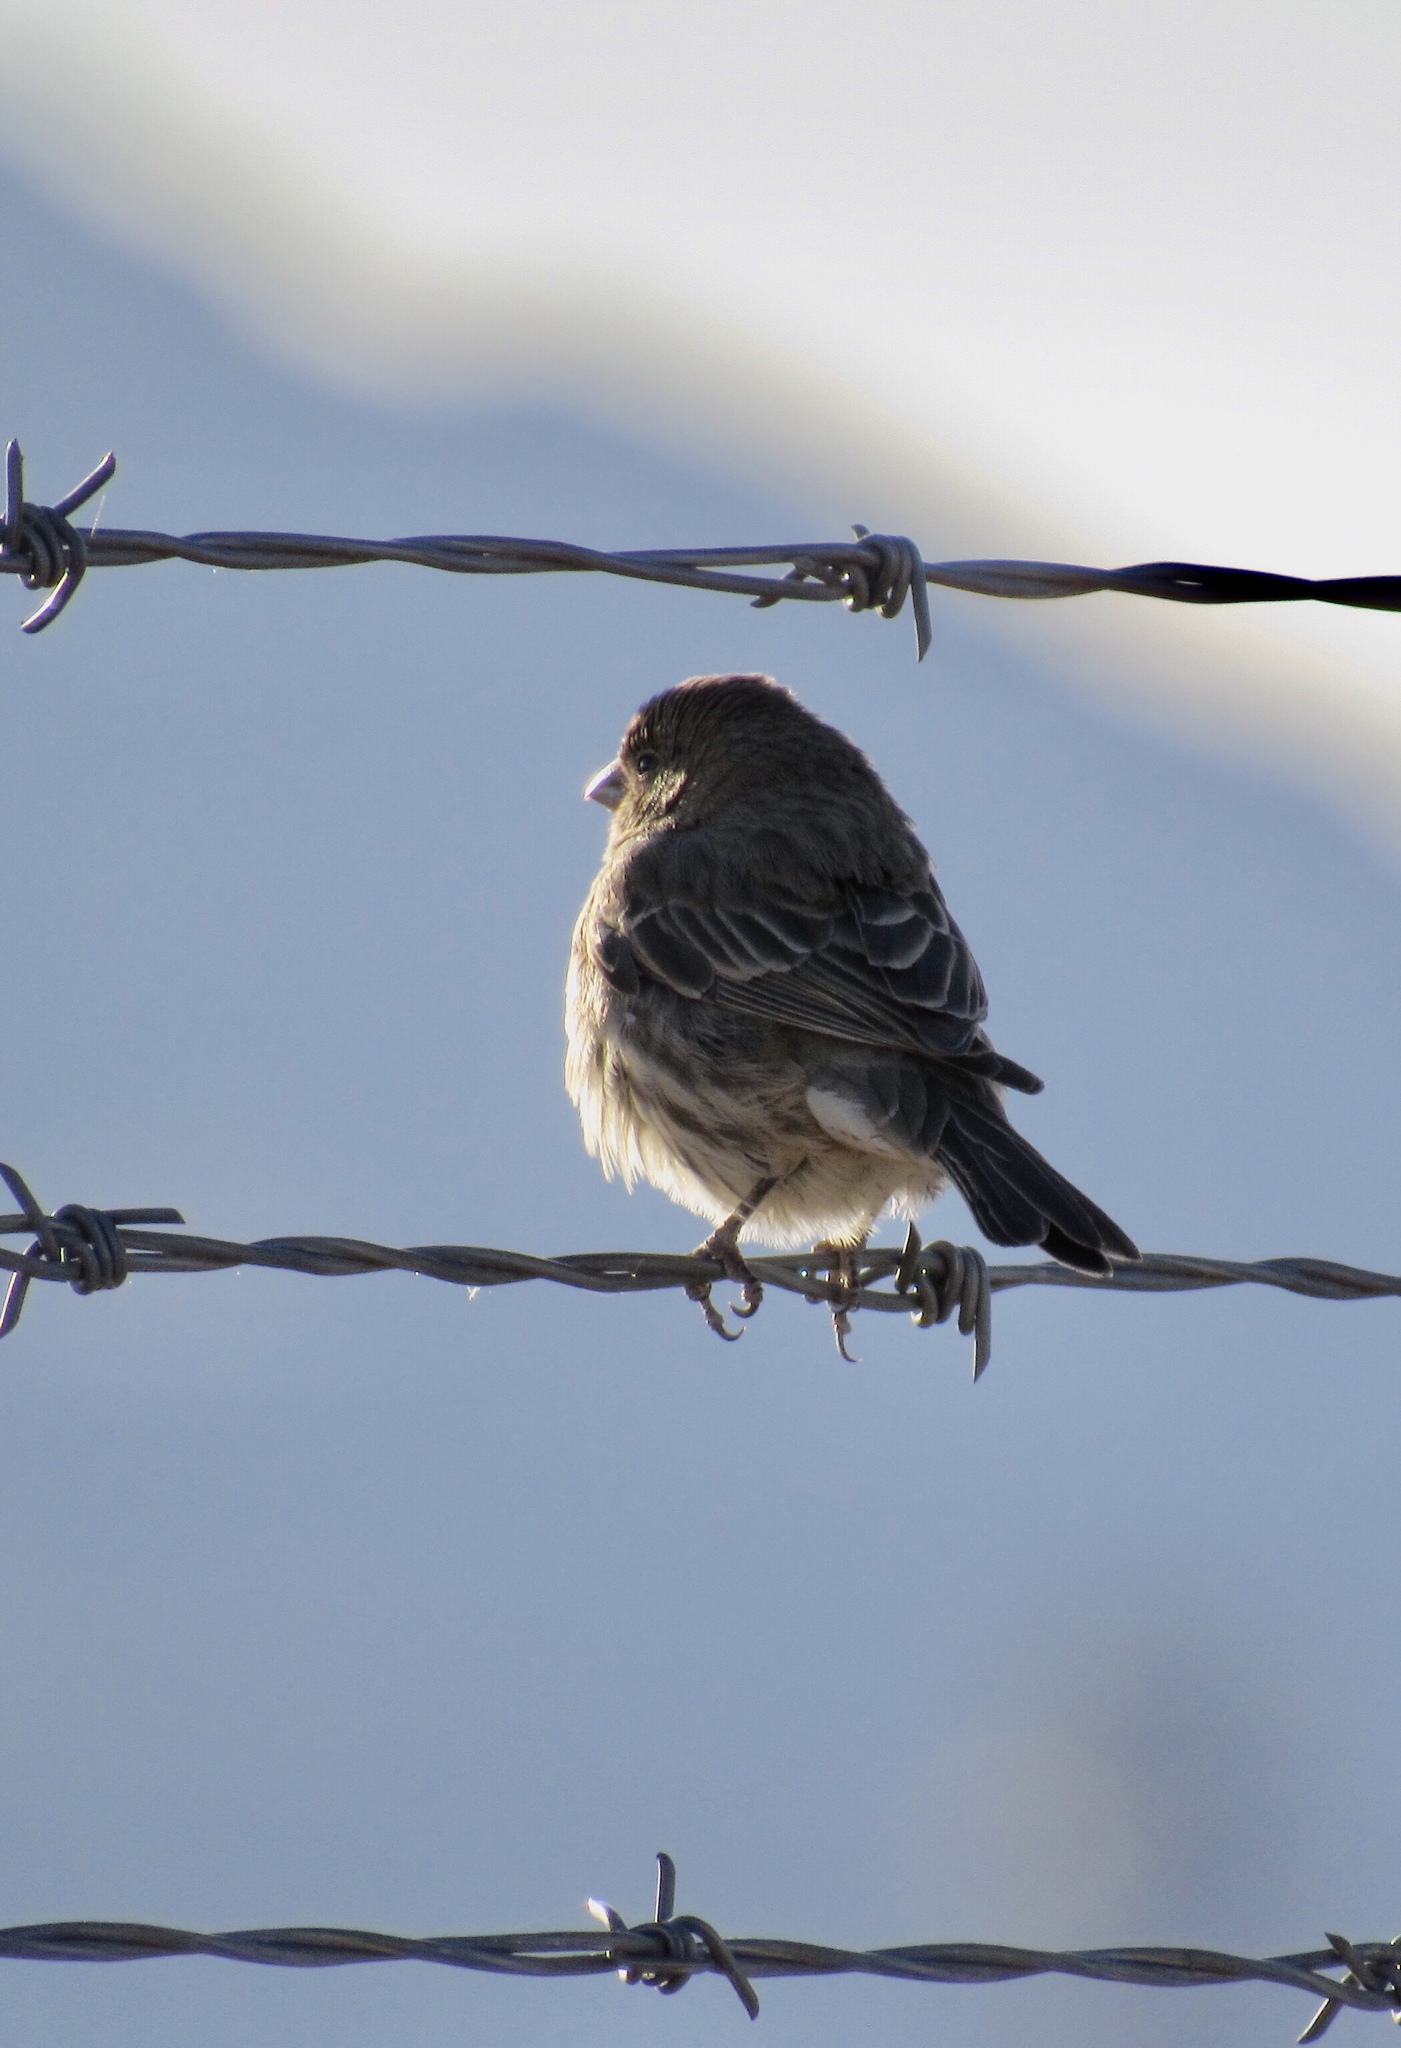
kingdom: Animalia
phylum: Chordata
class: Aves
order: Passeriformes
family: Passerellidae
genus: Calamospiza
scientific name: Calamospiza melanocorys
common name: Lark bunting
